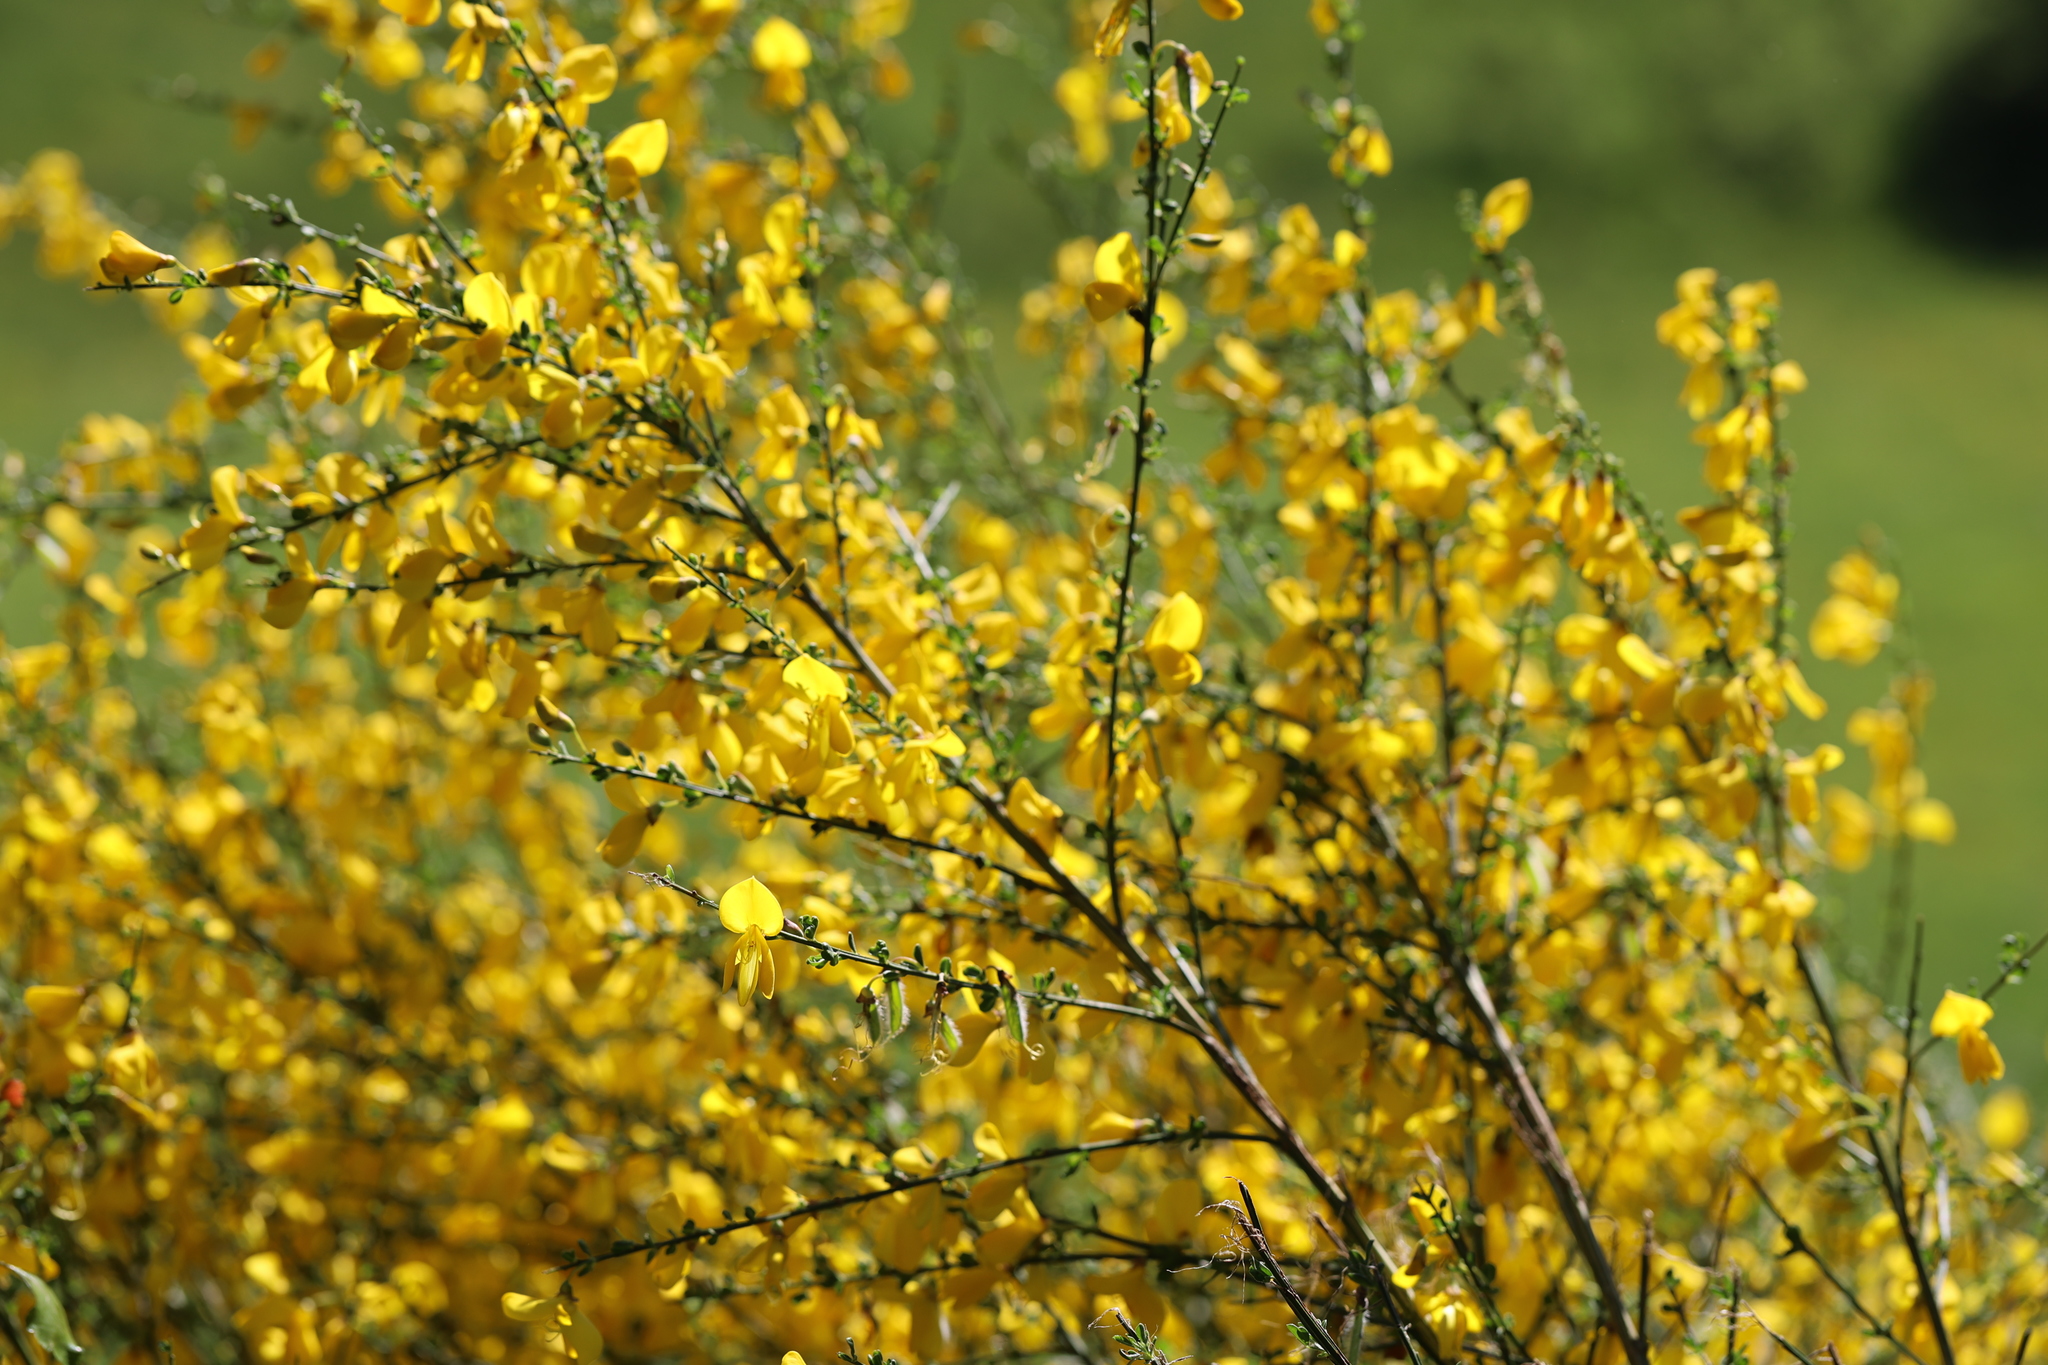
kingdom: Plantae
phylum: Tracheophyta
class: Magnoliopsida
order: Fabales
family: Fabaceae
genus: Cytisus
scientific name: Cytisus scoparius
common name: Scotch broom
